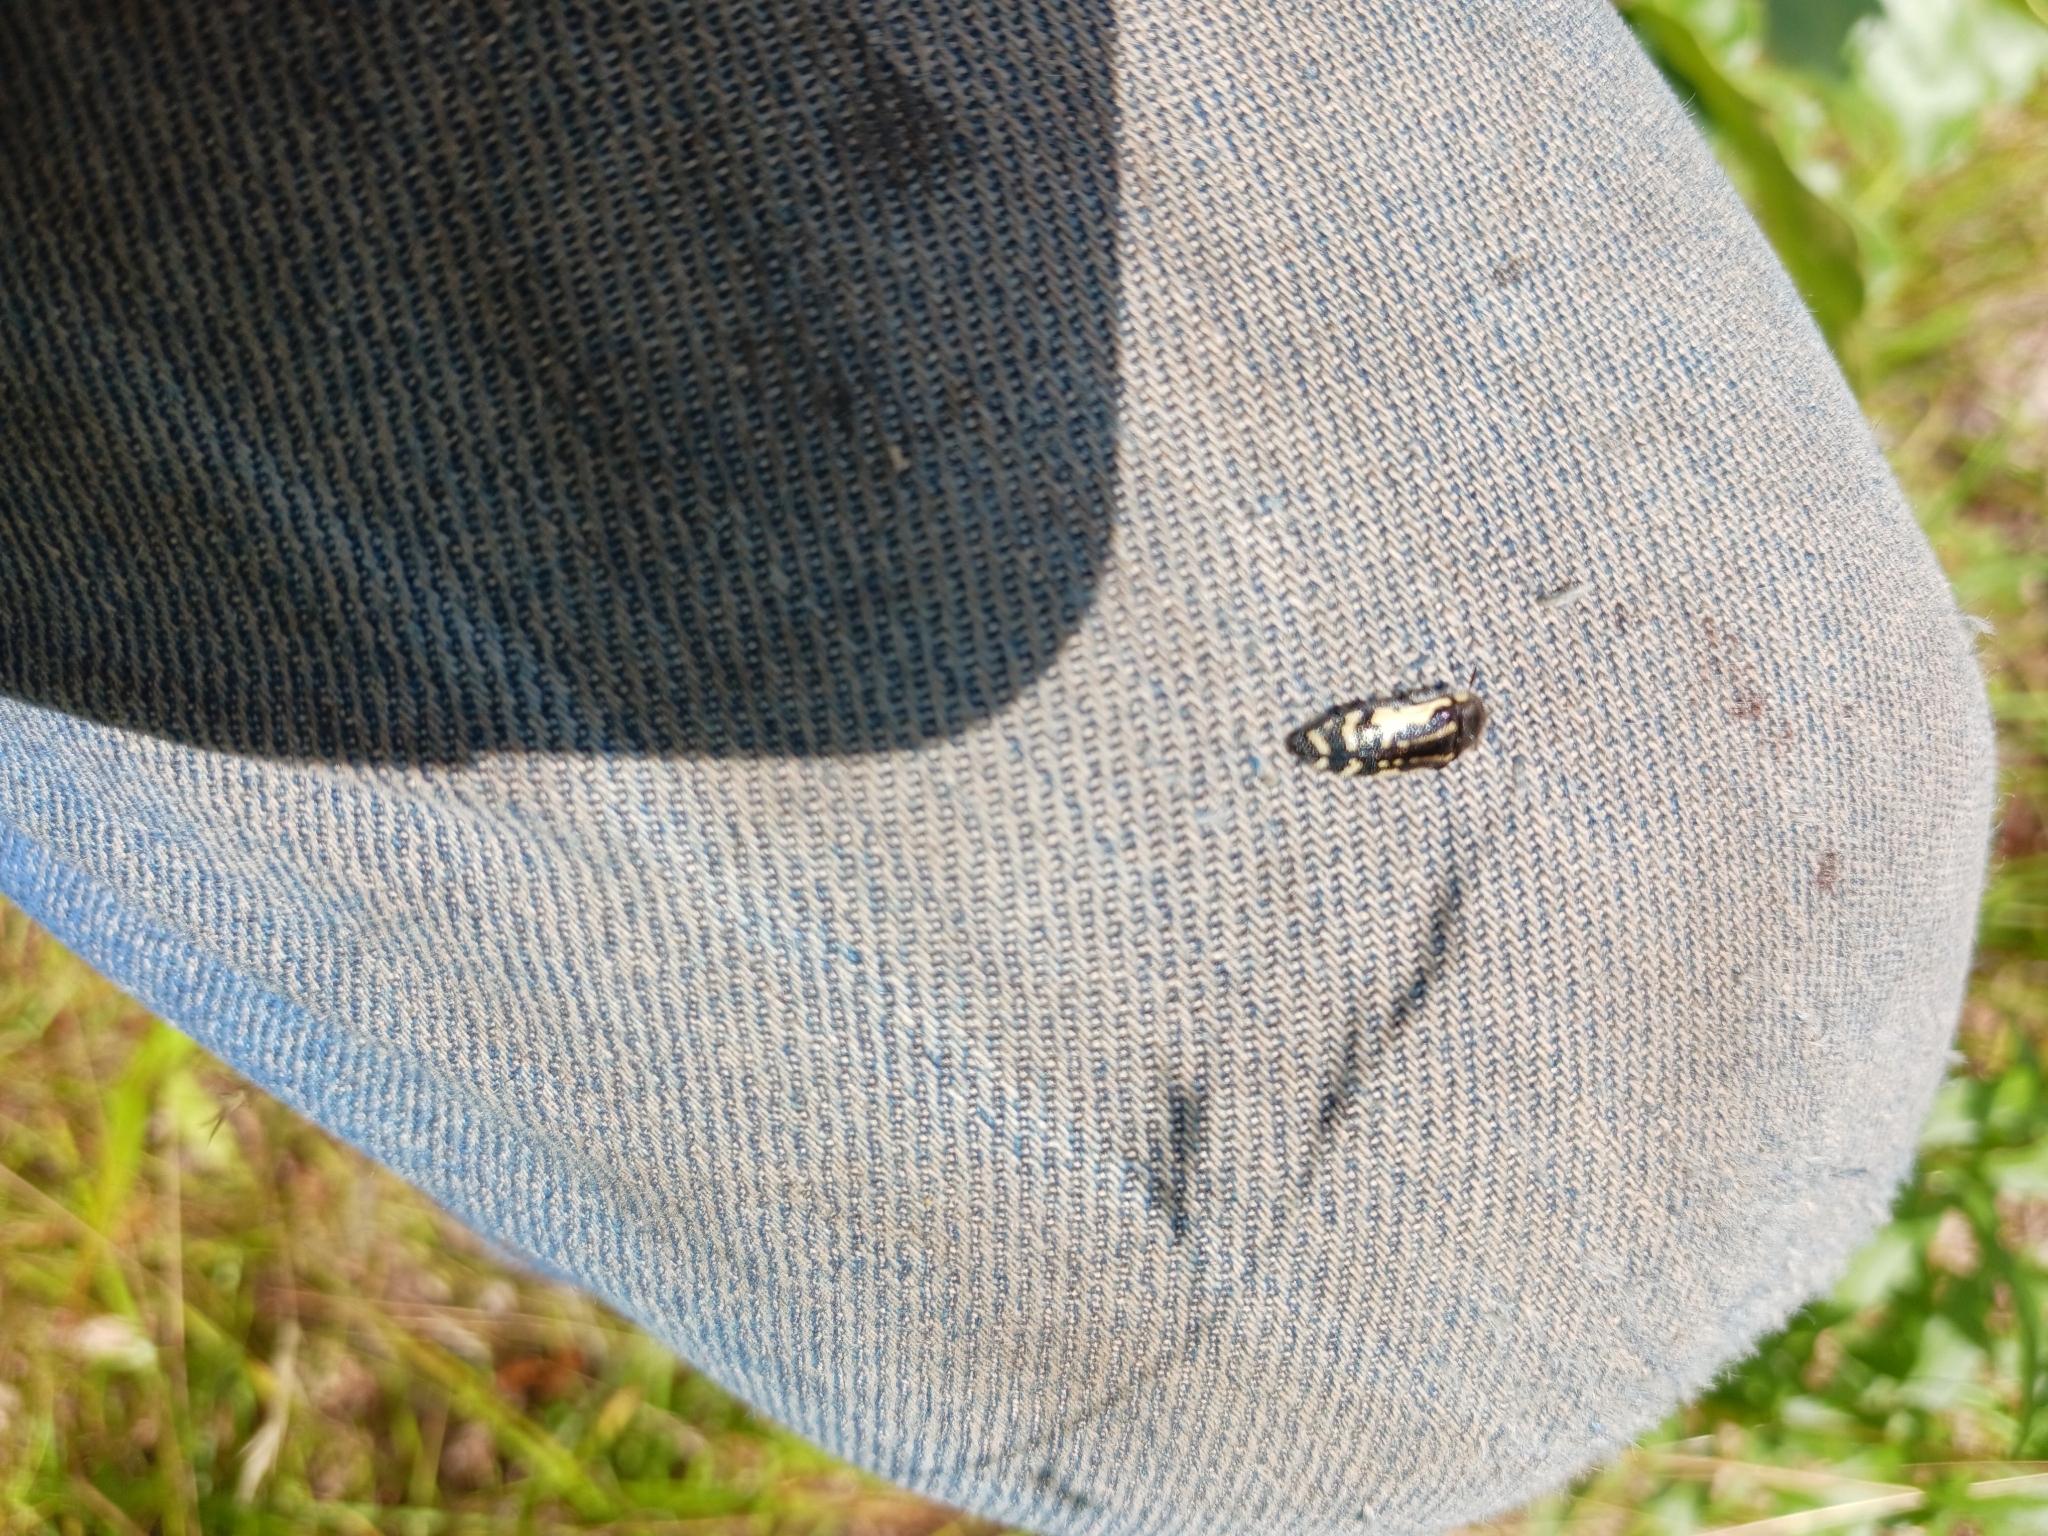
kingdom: Animalia
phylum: Arthropoda
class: Insecta
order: Coleoptera
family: Buprestidae
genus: Acmaeodera
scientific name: Acmaeodera pulchella
